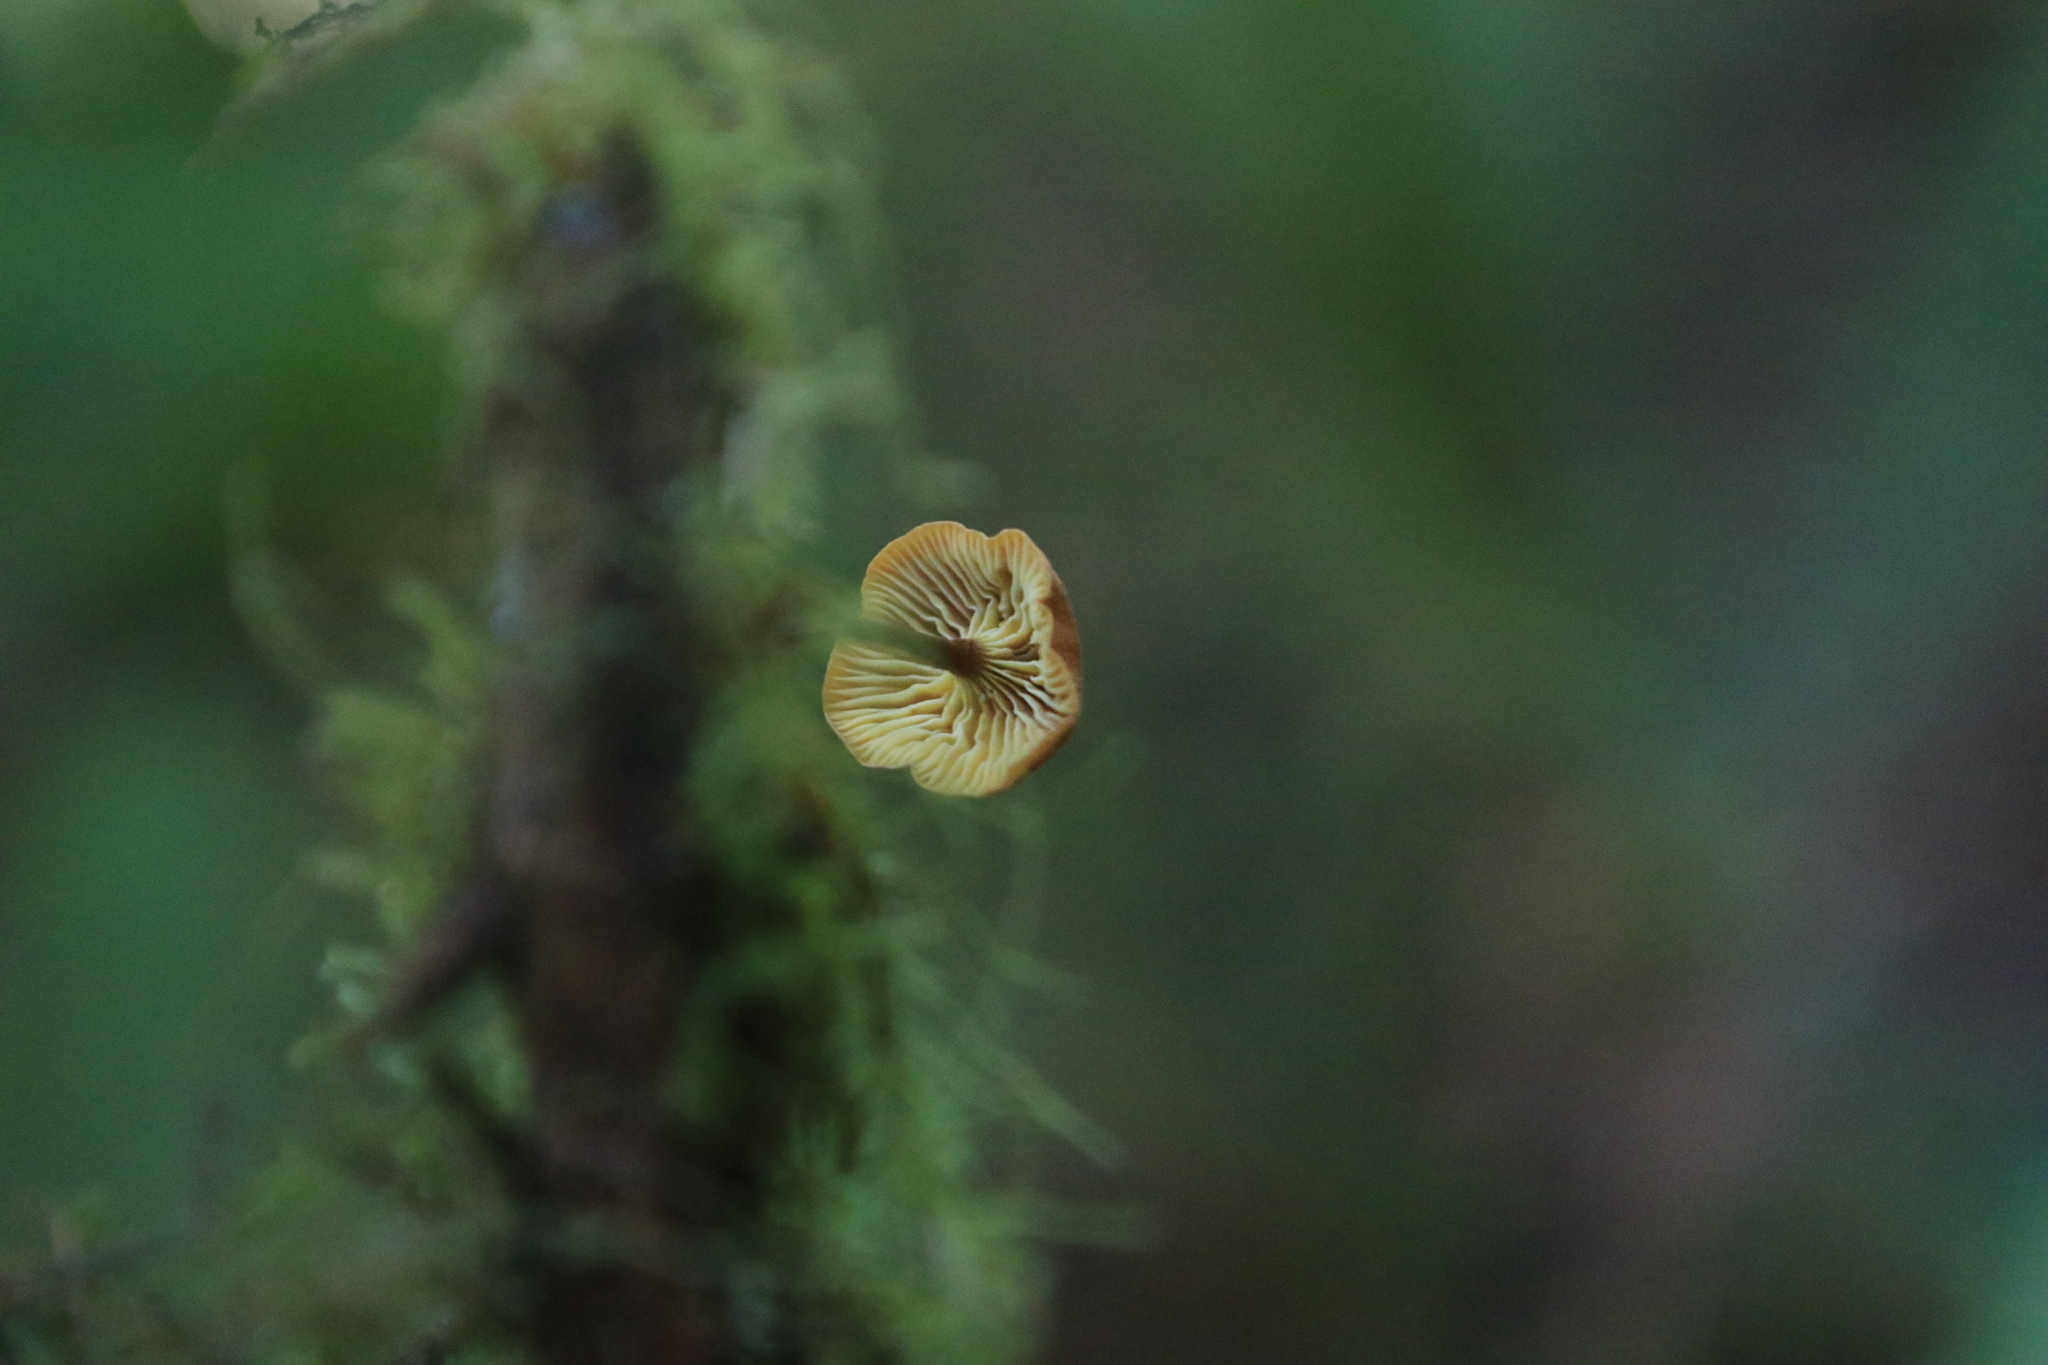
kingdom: Fungi
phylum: Basidiomycota
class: Agaricomycetes
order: Agaricales
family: Mycenaceae
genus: Xeromphalina
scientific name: Xeromphalina campanella
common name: Pinewood gingertail
